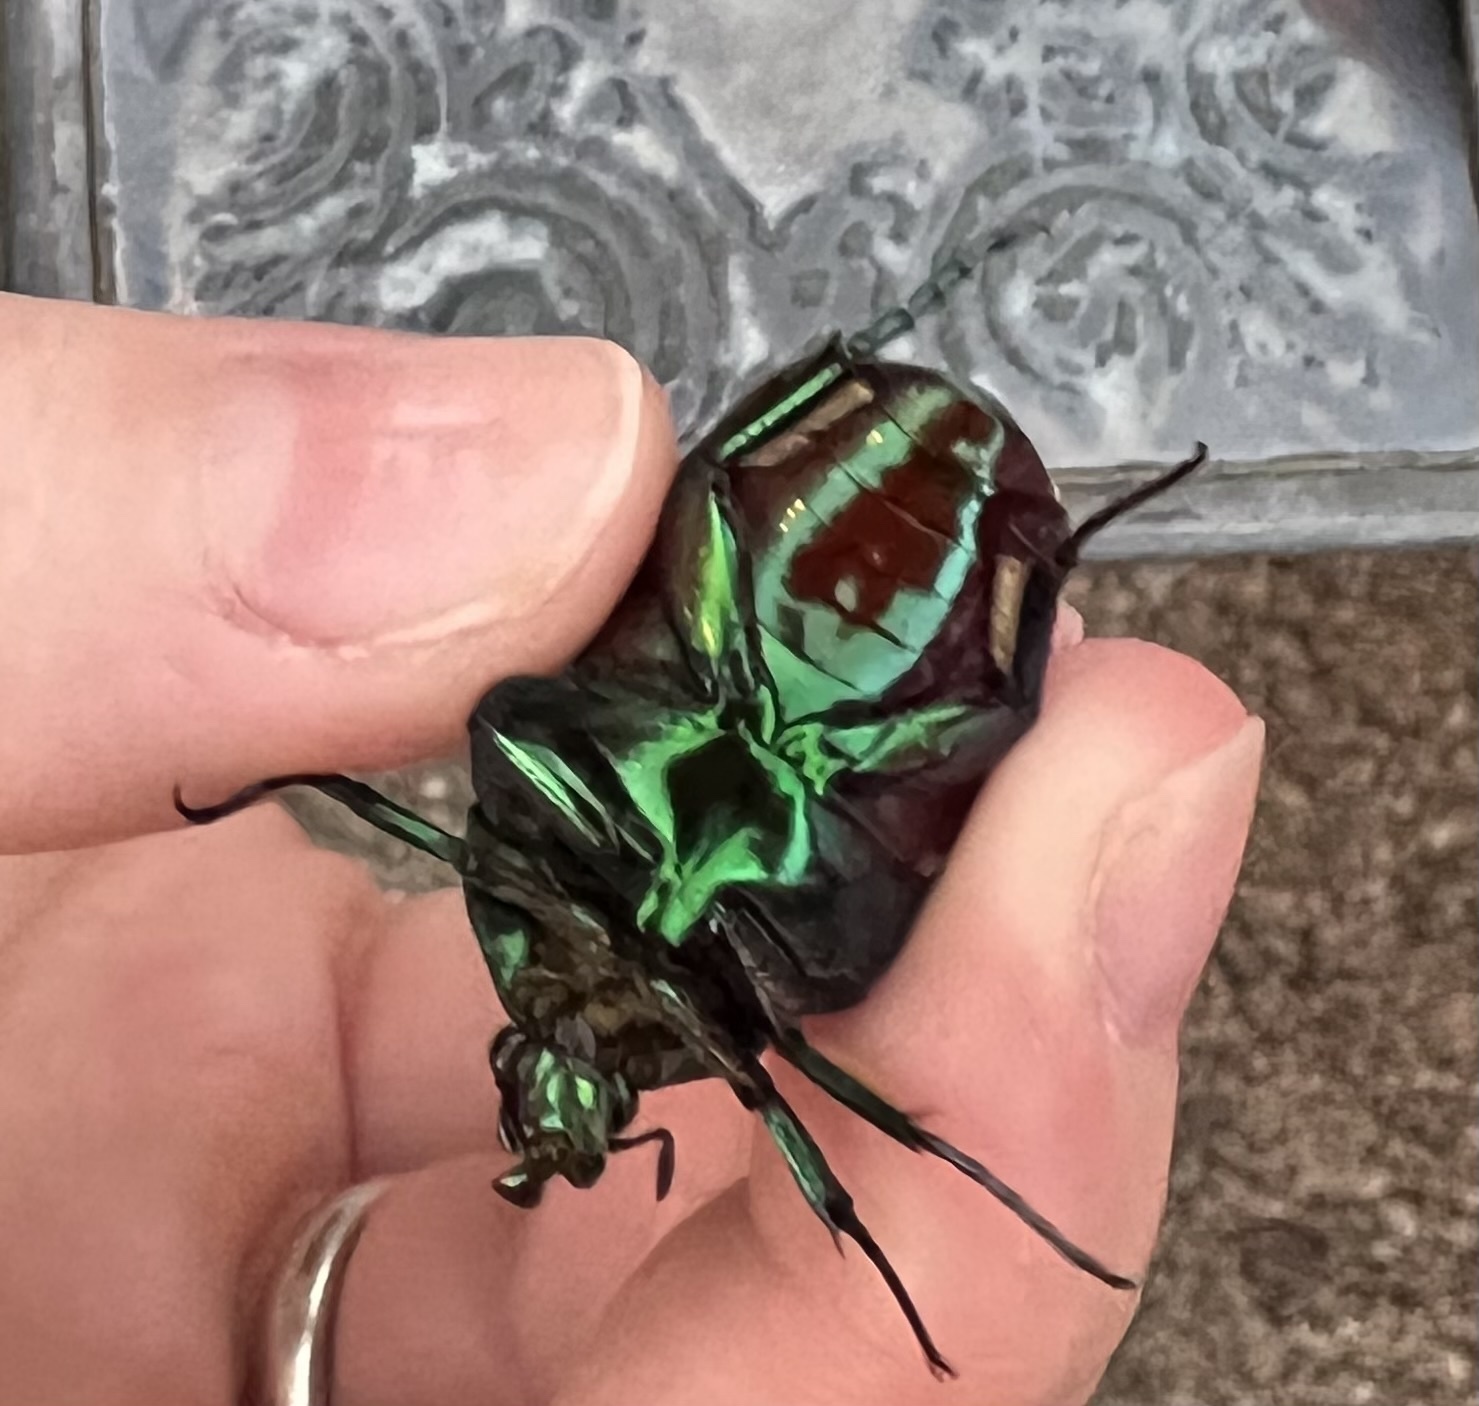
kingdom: Animalia
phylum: Arthropoda
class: Insecta
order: Coleoptera
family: Scarabaeidae
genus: Cotinis
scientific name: Cotinis mutabilis
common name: Figeater beetle
